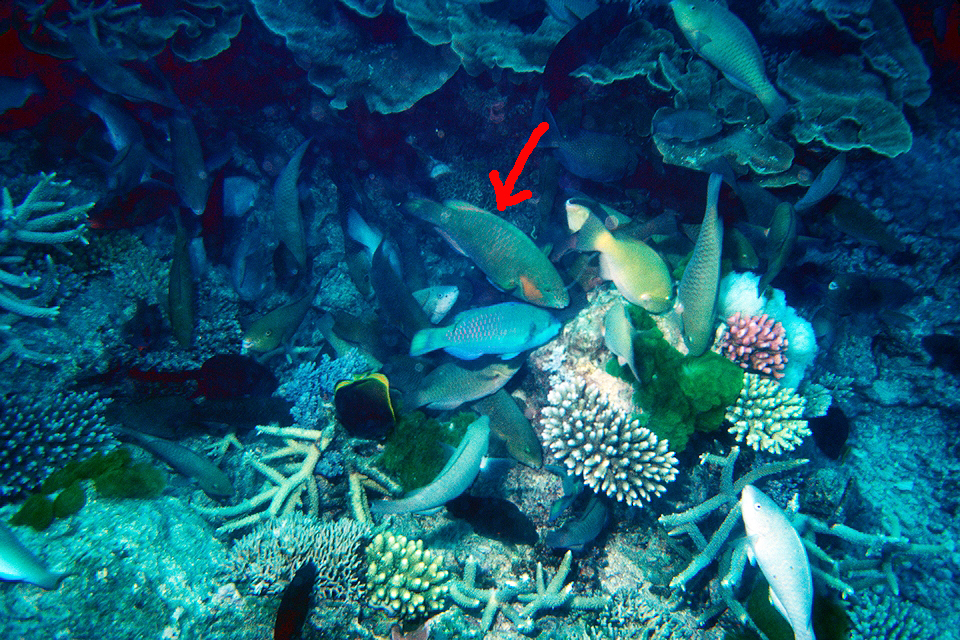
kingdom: Animalia
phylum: Chordata
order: Perciformes
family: Scaridae
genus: Scarus
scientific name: Scarus rivulatus
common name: Surf parrotfish
